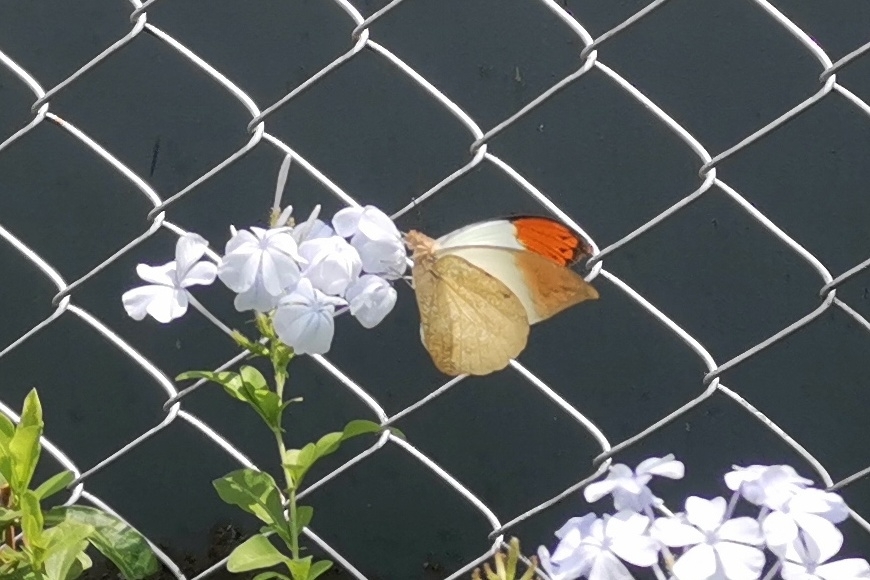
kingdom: Animalia
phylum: Arthropoda
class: Insecta
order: Lepidoptera
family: Pieridae
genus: Hebomoia
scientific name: Hebomoia glaucippe
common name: Great orange tip
